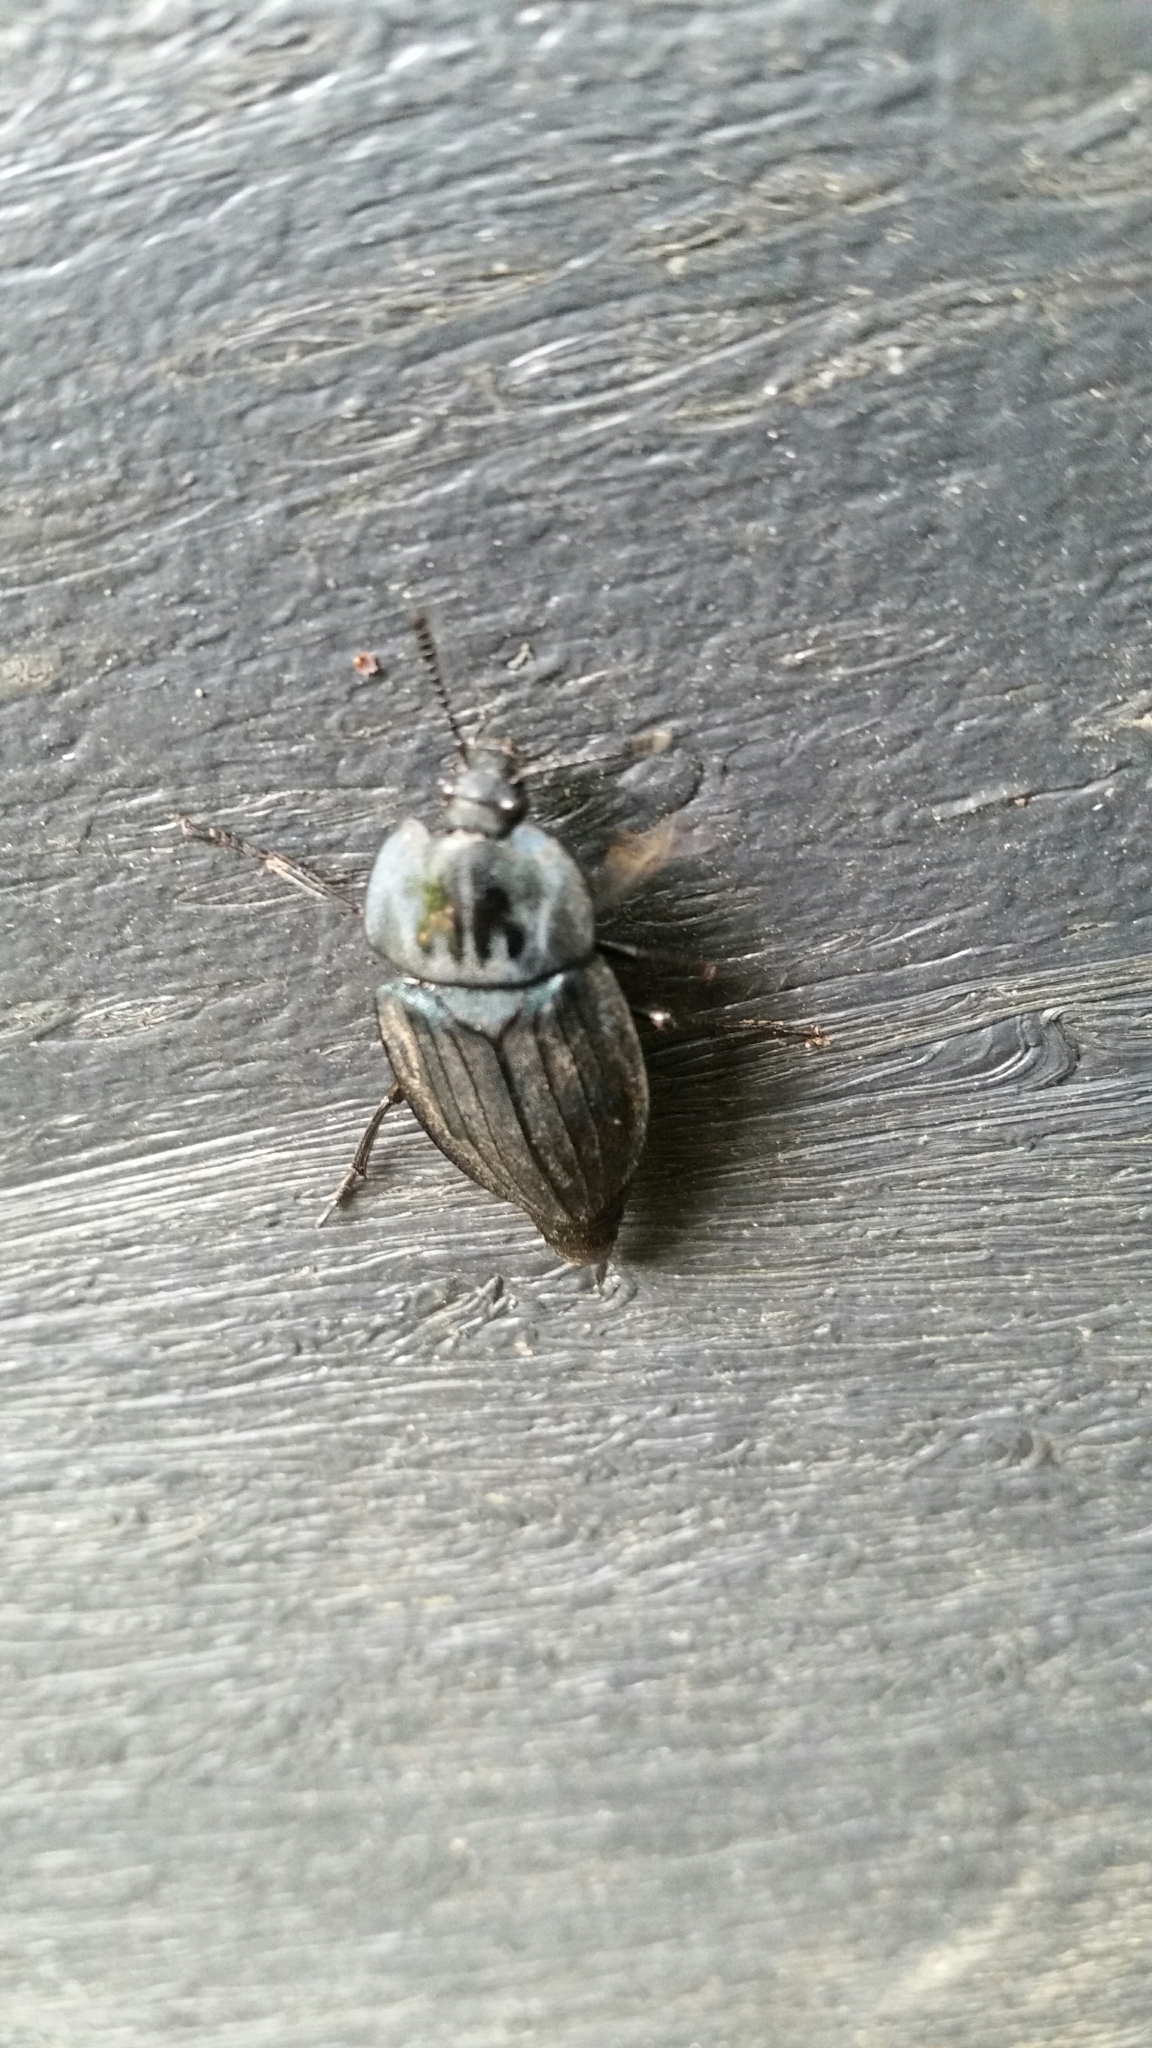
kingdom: Animalia
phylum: Arthropoda
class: Insecta
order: Coleoptera
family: Staphylinidae
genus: Necrophila
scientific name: Necrophila japonica
